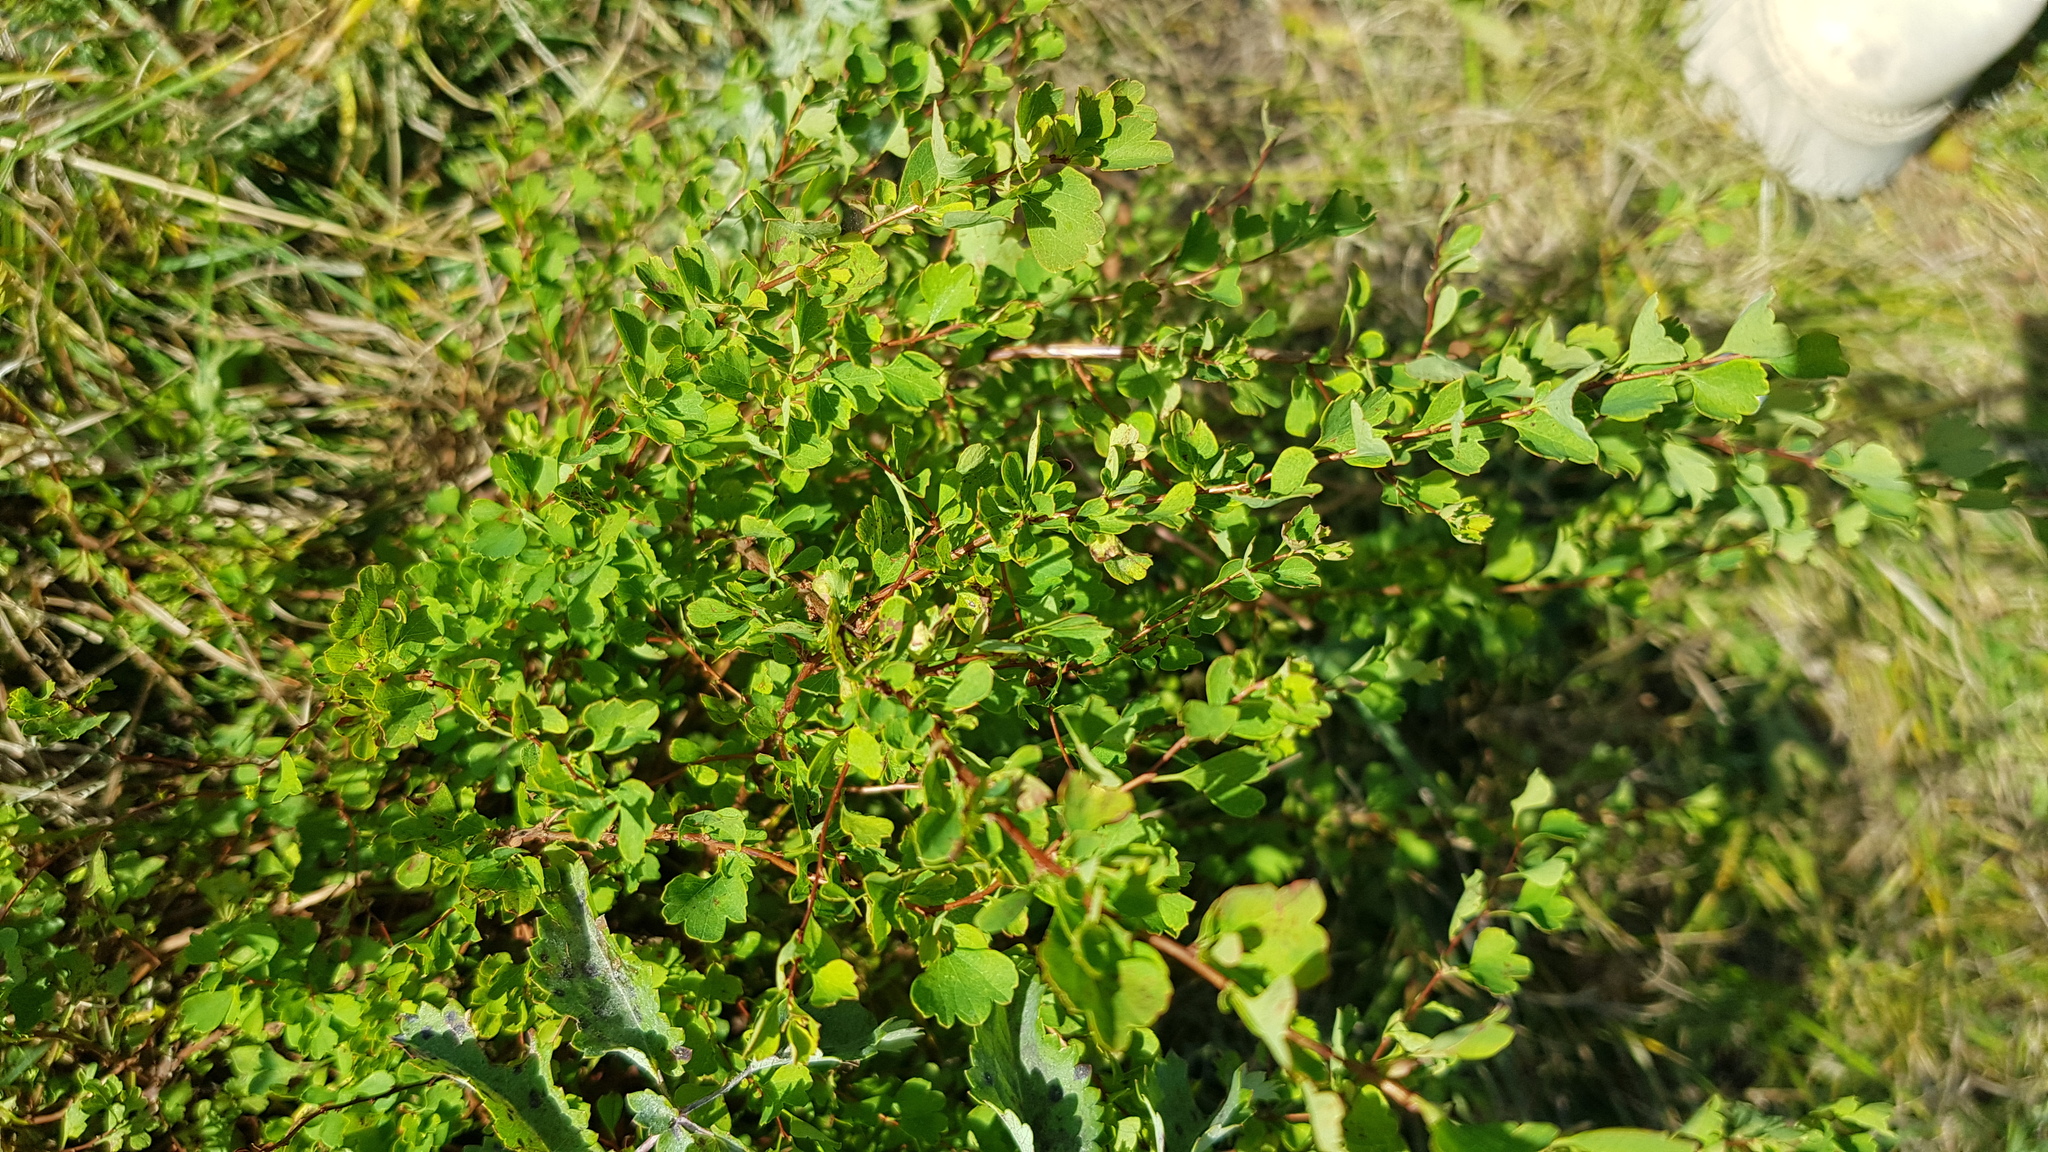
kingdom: Plantae
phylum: Tracheophyta
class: Magnoliopsida
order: Rosales
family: Rosaceae
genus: Spiraea
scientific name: Spiraea aquilegifolia
